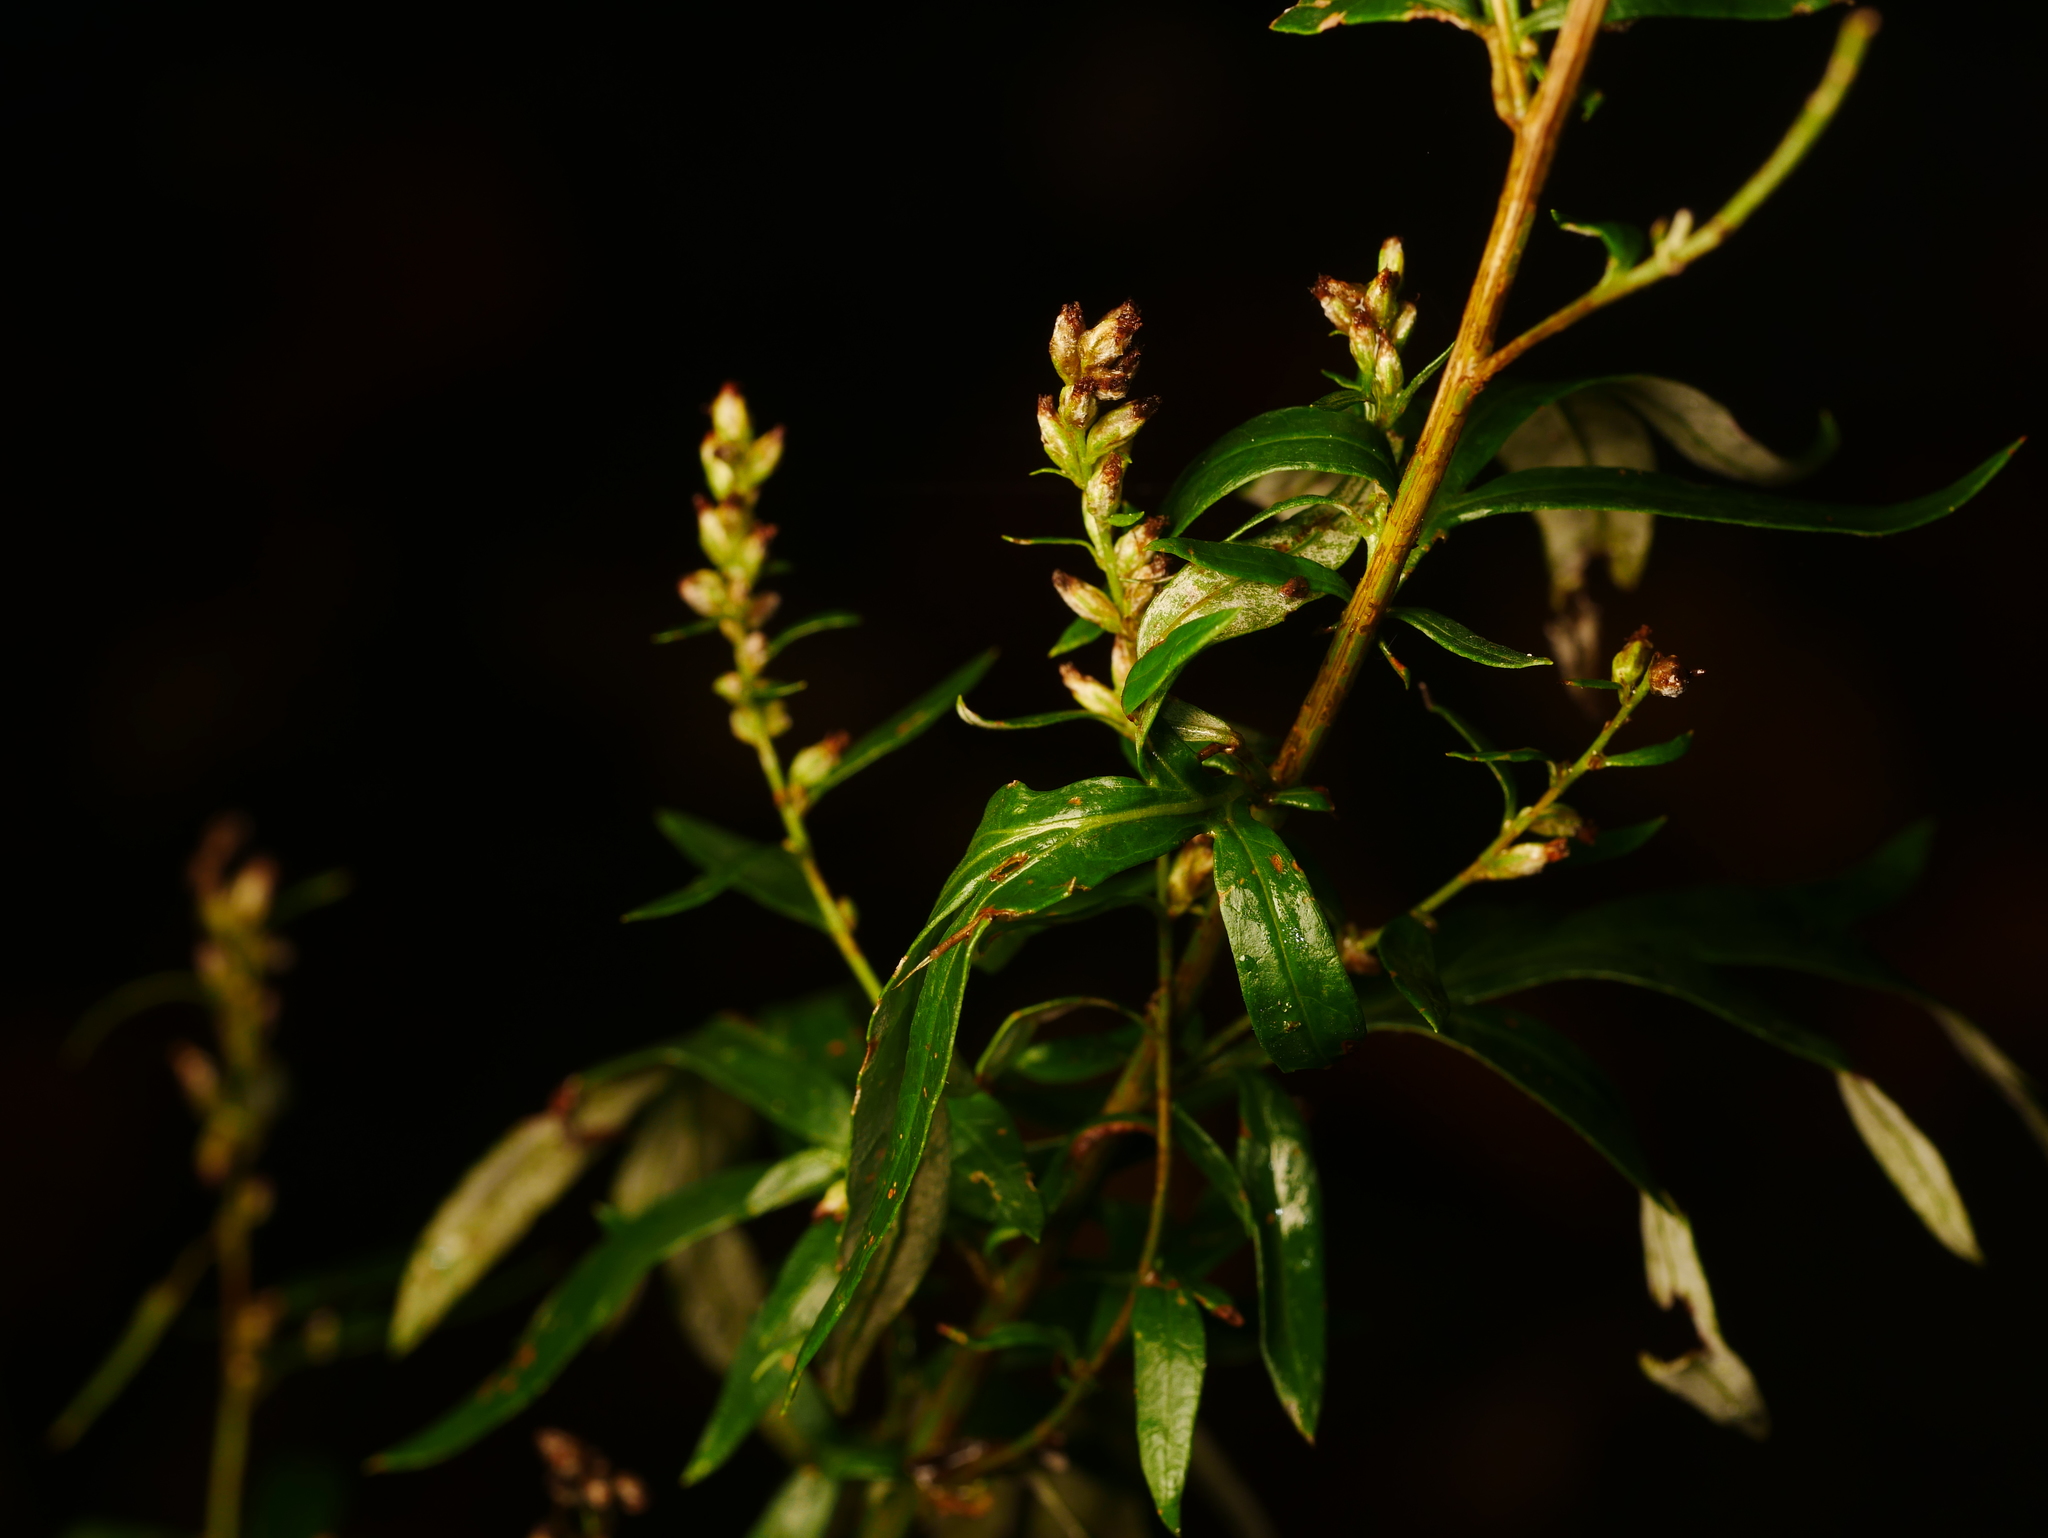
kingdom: Plantae
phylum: Tracheophyta
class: Magnoliopsida
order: Asterales
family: Asteraceae
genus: Artemisia
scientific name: Artemisia vulgaris
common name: Mugwort
